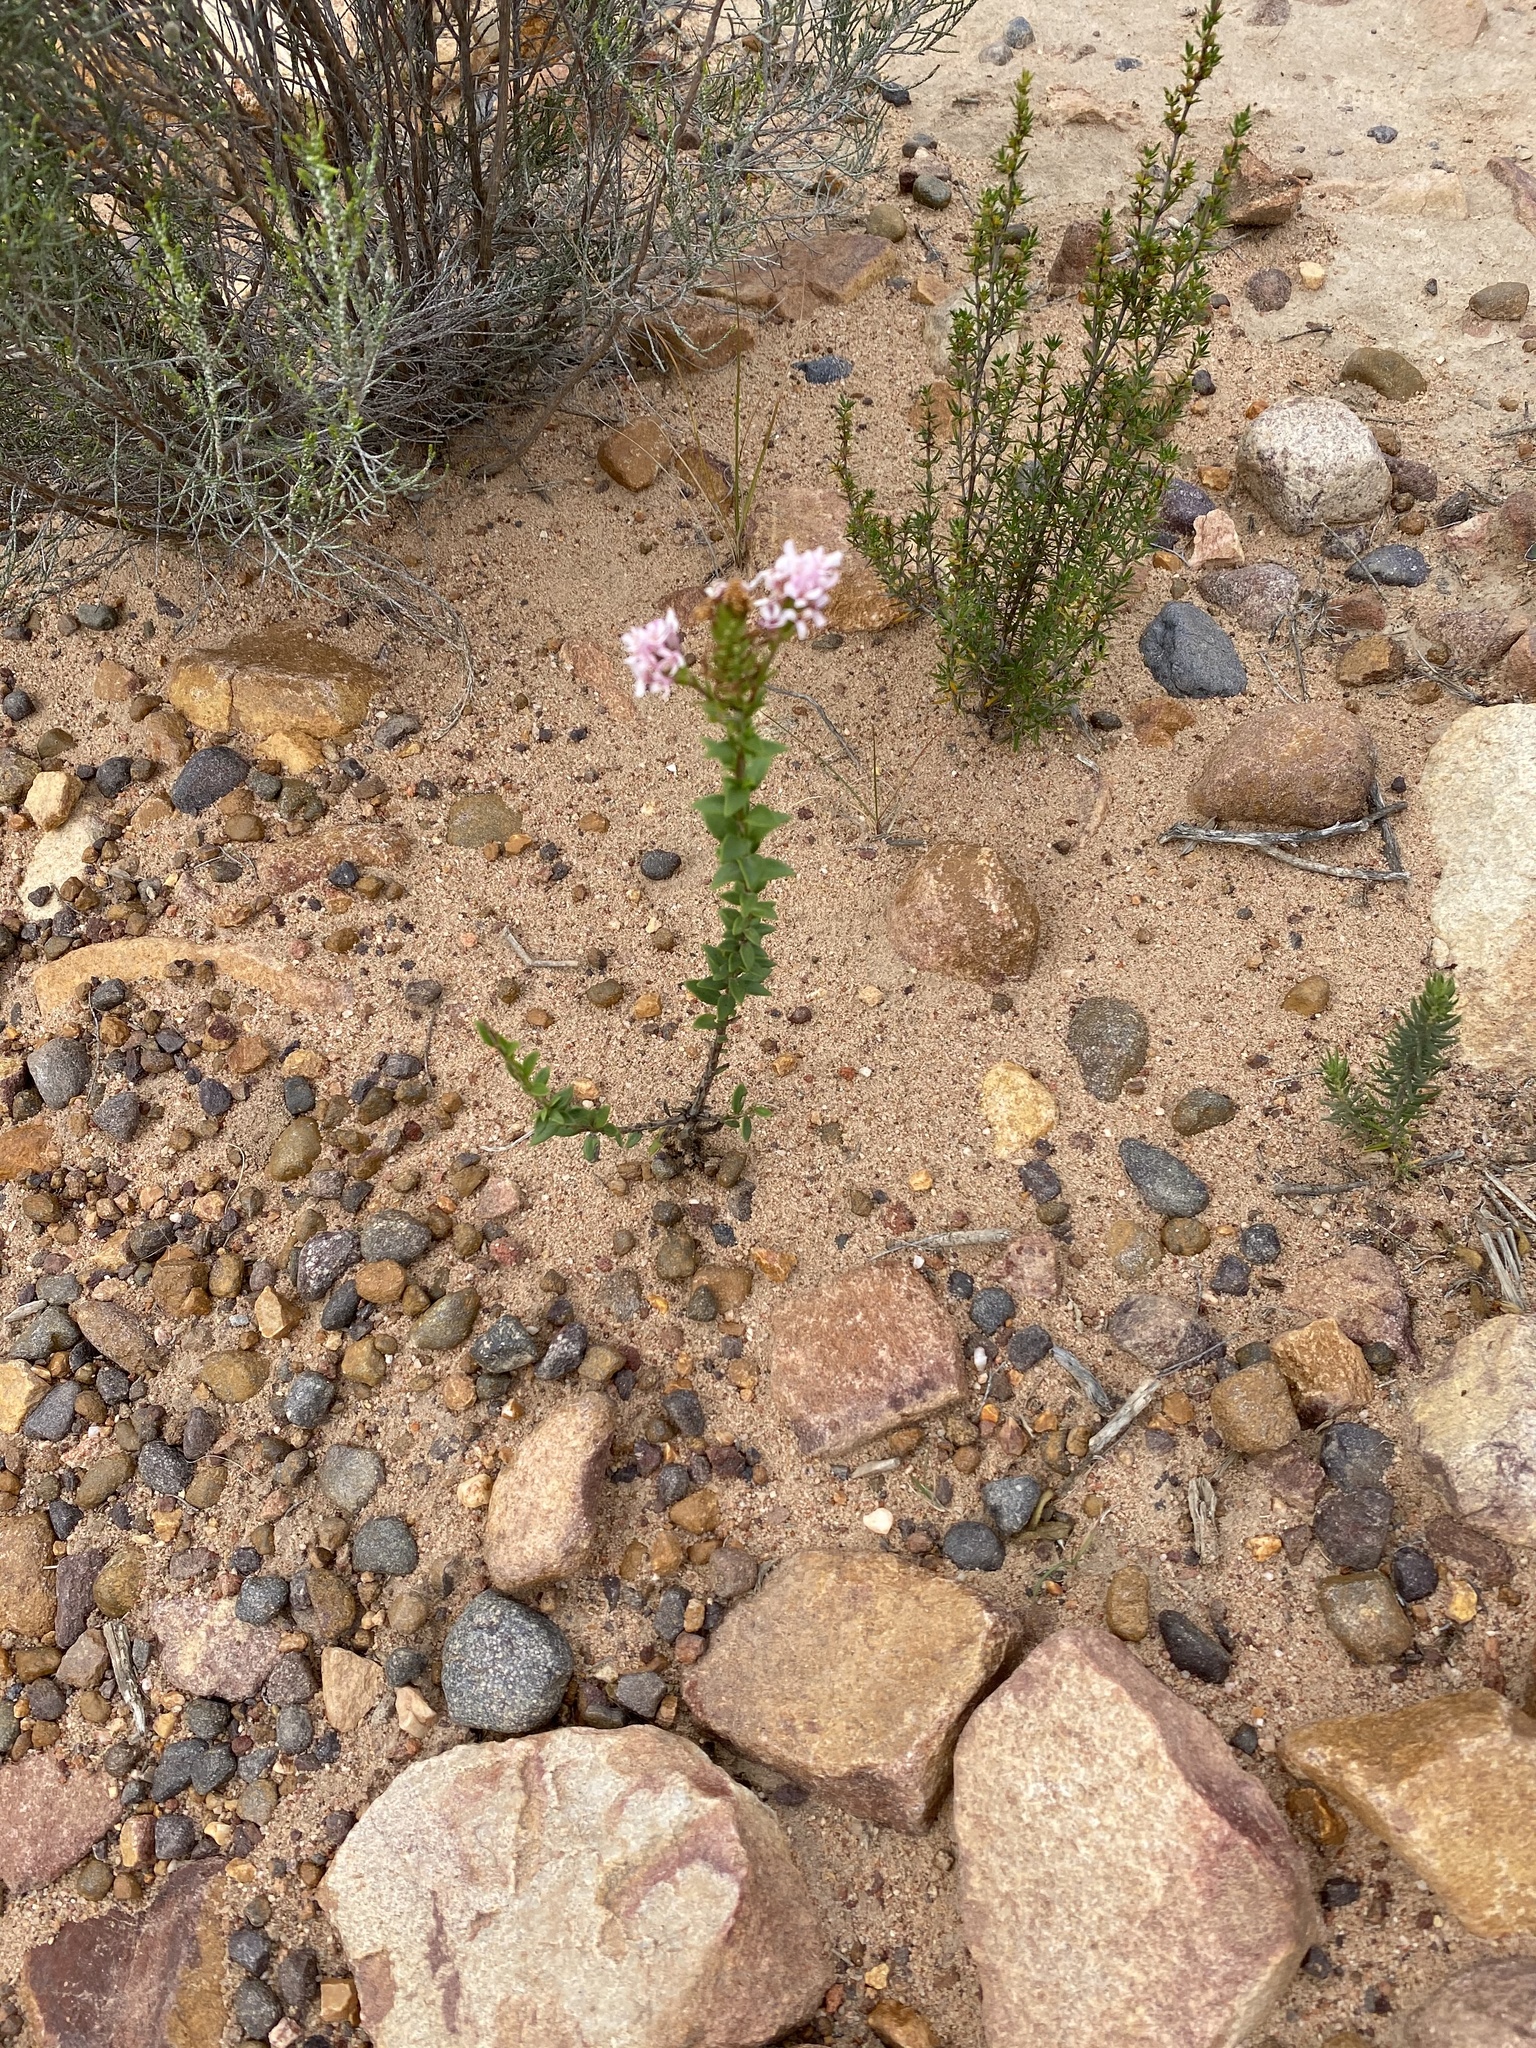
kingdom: Plantae
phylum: Tracheophyta
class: Magnoliopsida
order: Lamiales
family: Scrophulariaceae
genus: Selago
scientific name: Selago myrtifolia
